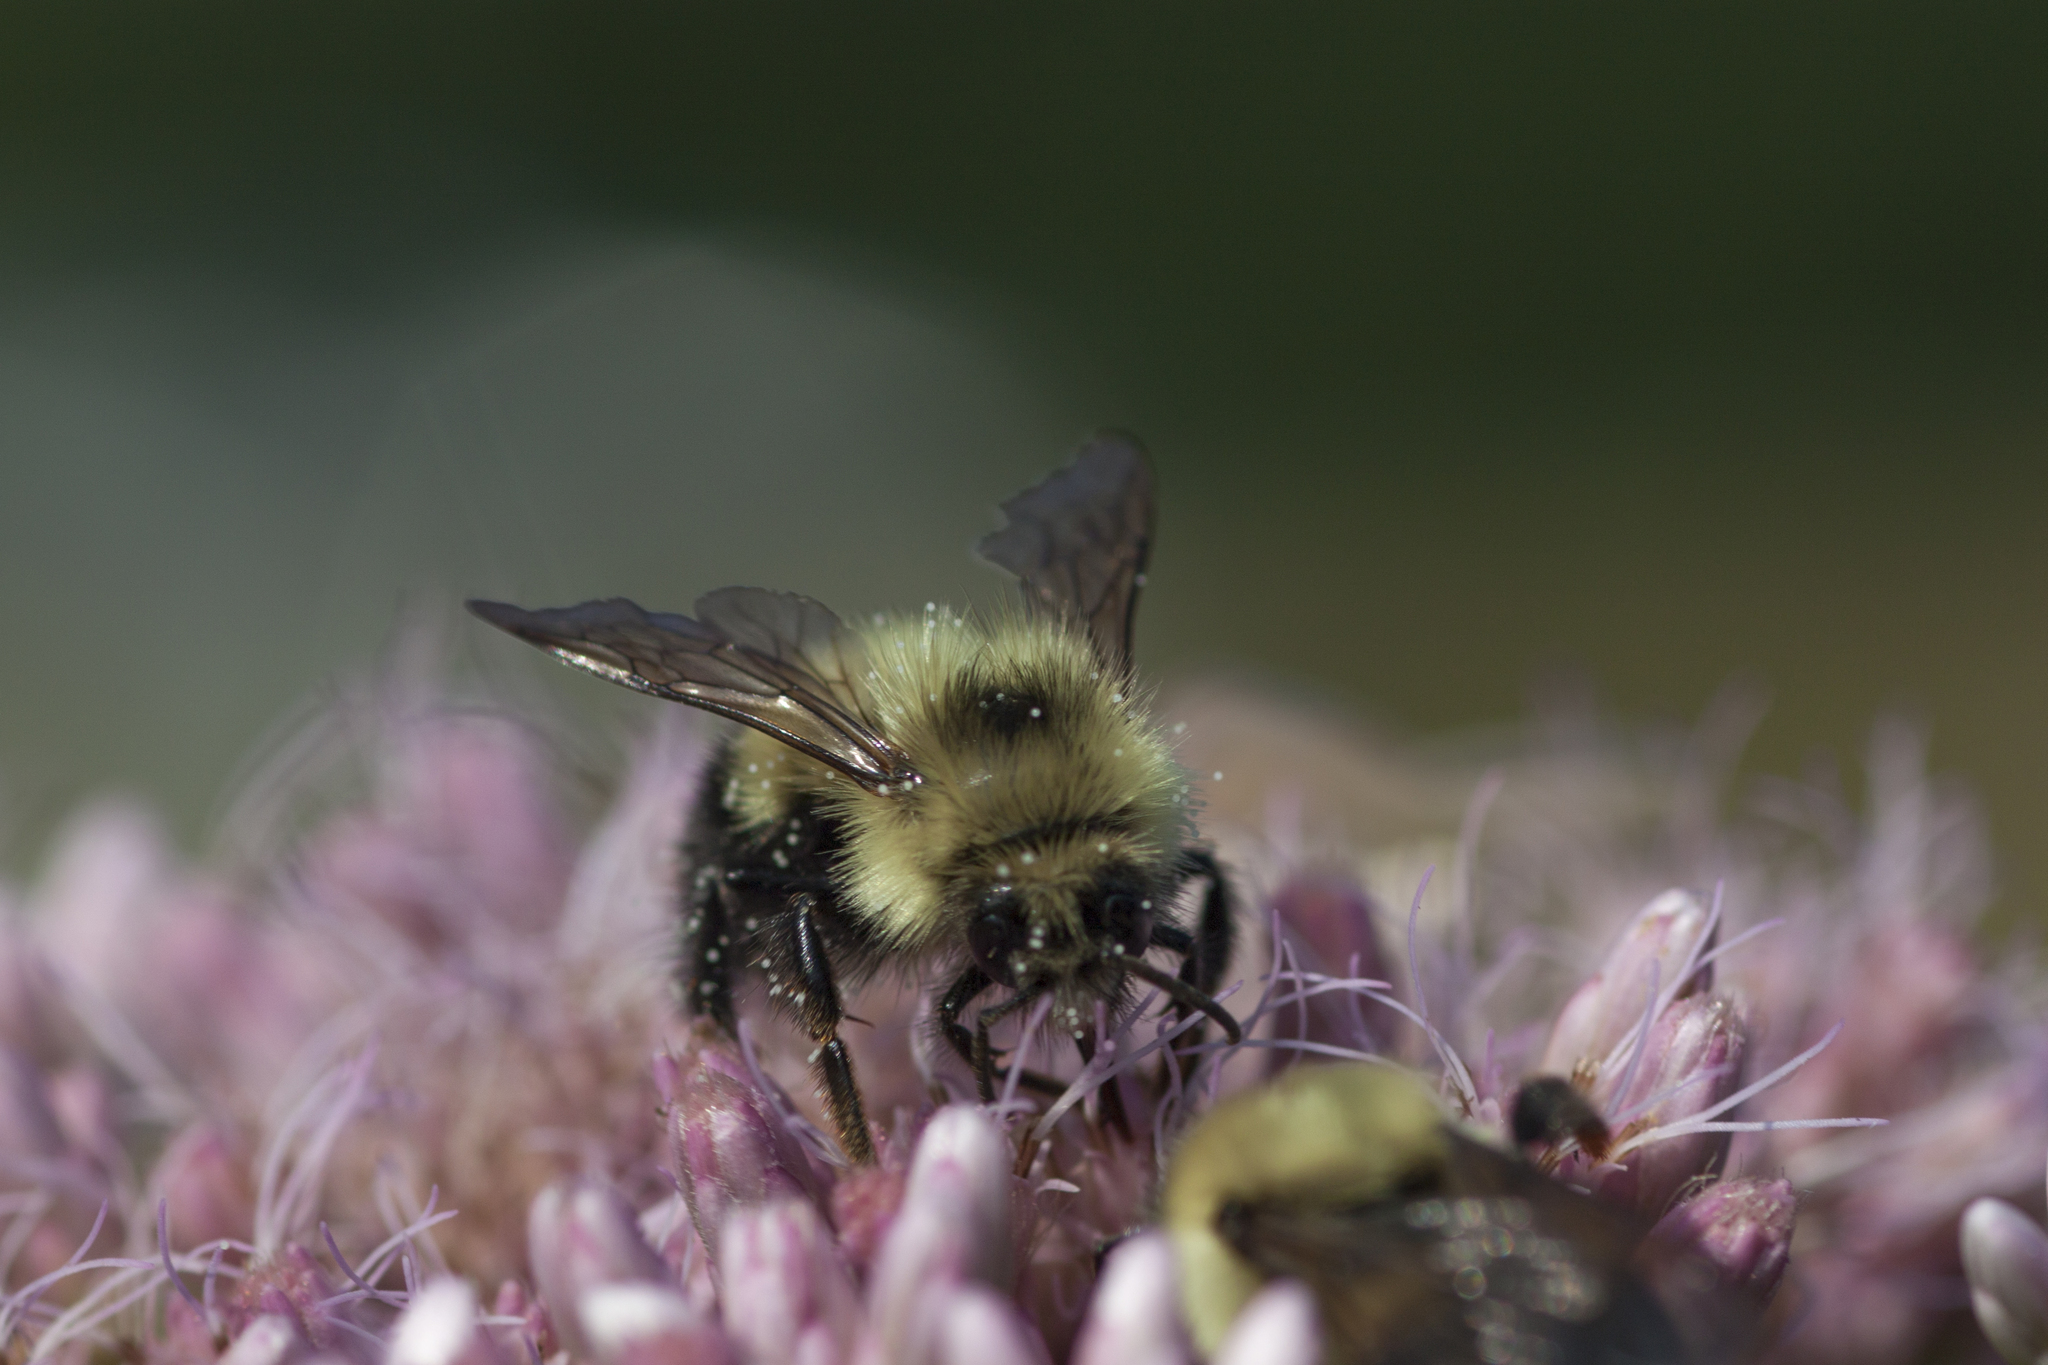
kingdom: Animalia
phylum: Arthropoda
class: Insecta
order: Hymenoptera
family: Apidae
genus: Pyrobombus
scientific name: Pyrobombus
